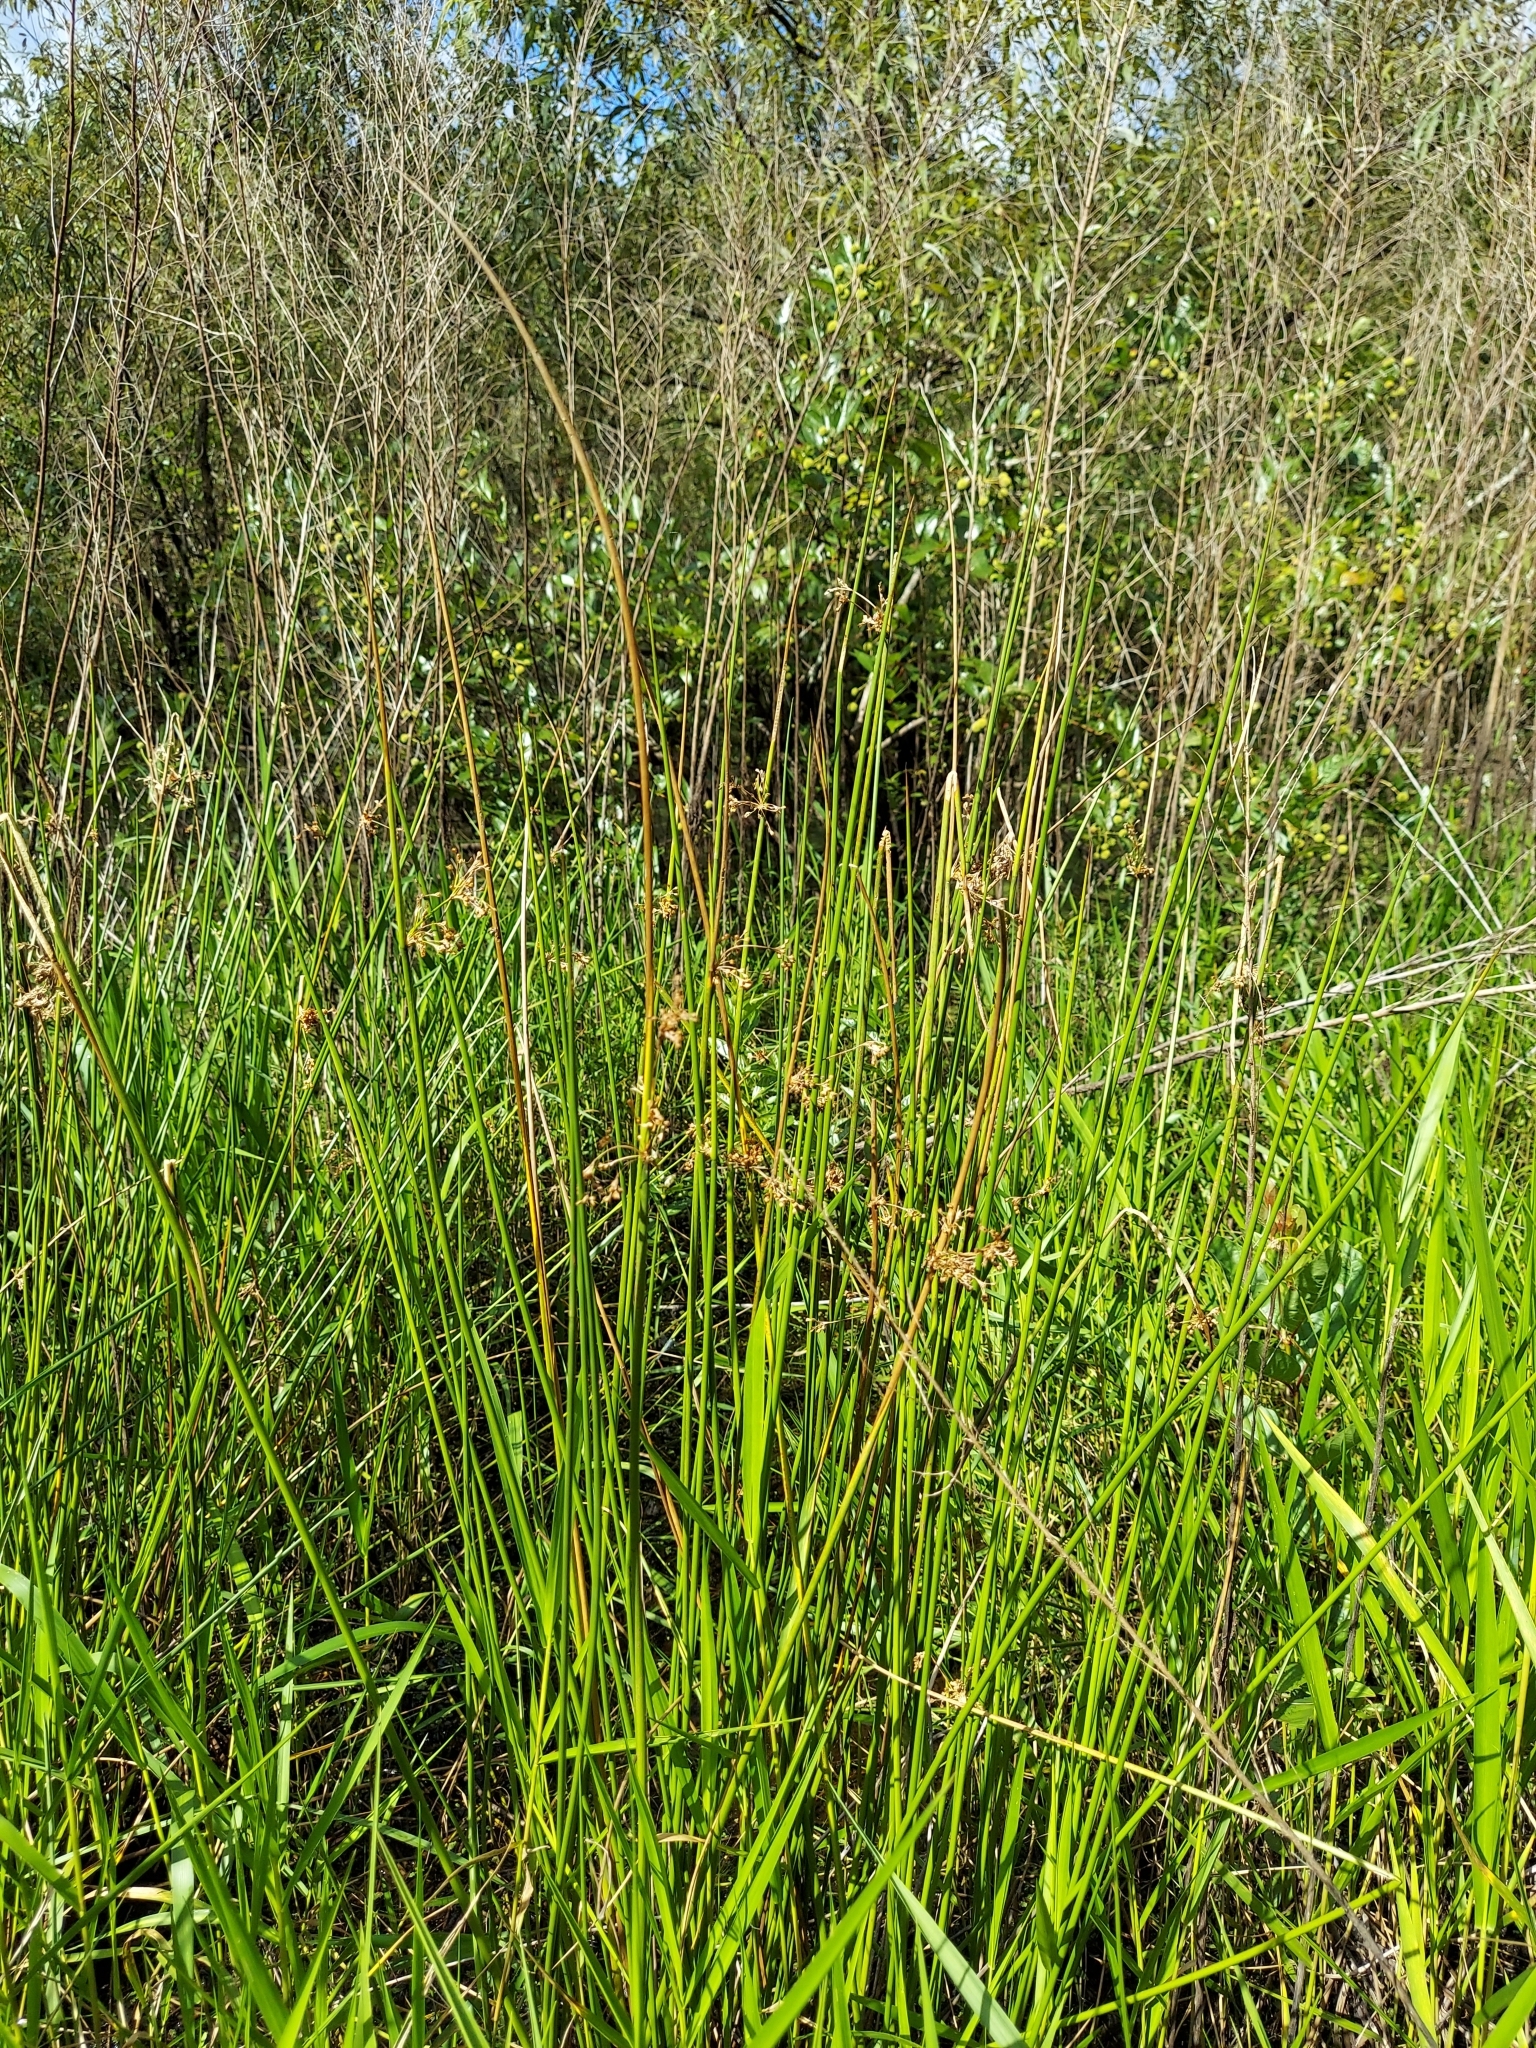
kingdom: Plantae
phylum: Tracheophyta
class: Liliopsida
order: Poales
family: Juncaceae
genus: Juncus
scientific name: Juncus effusus
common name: Soft rush
